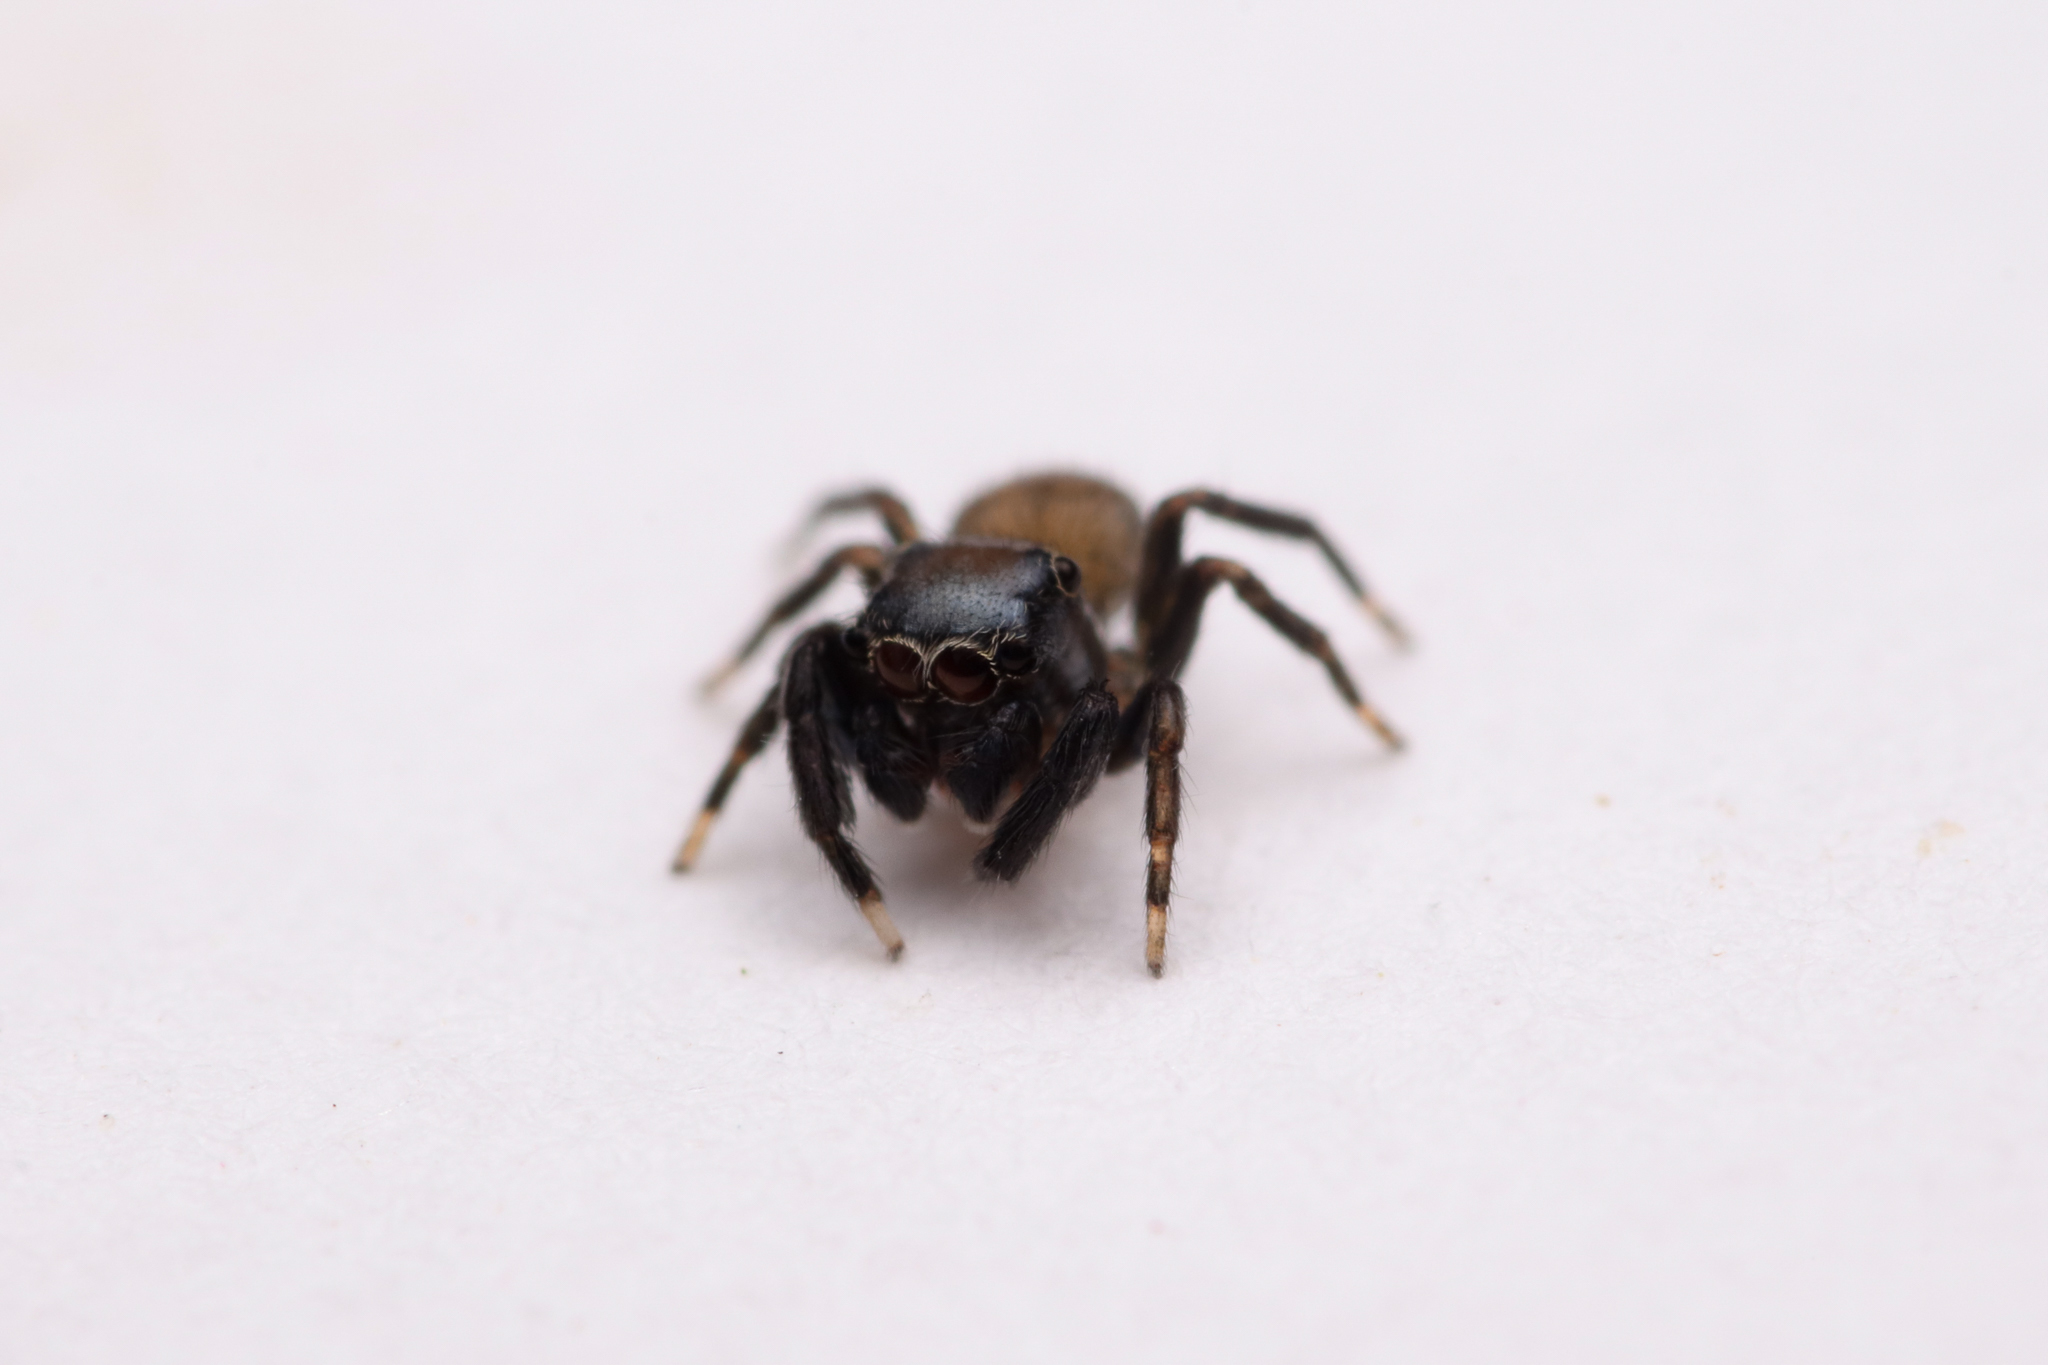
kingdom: Animalia
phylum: Arthropoda
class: Arachnida
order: Araneae
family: Salticidae
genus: Neon
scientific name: Neon nelli
